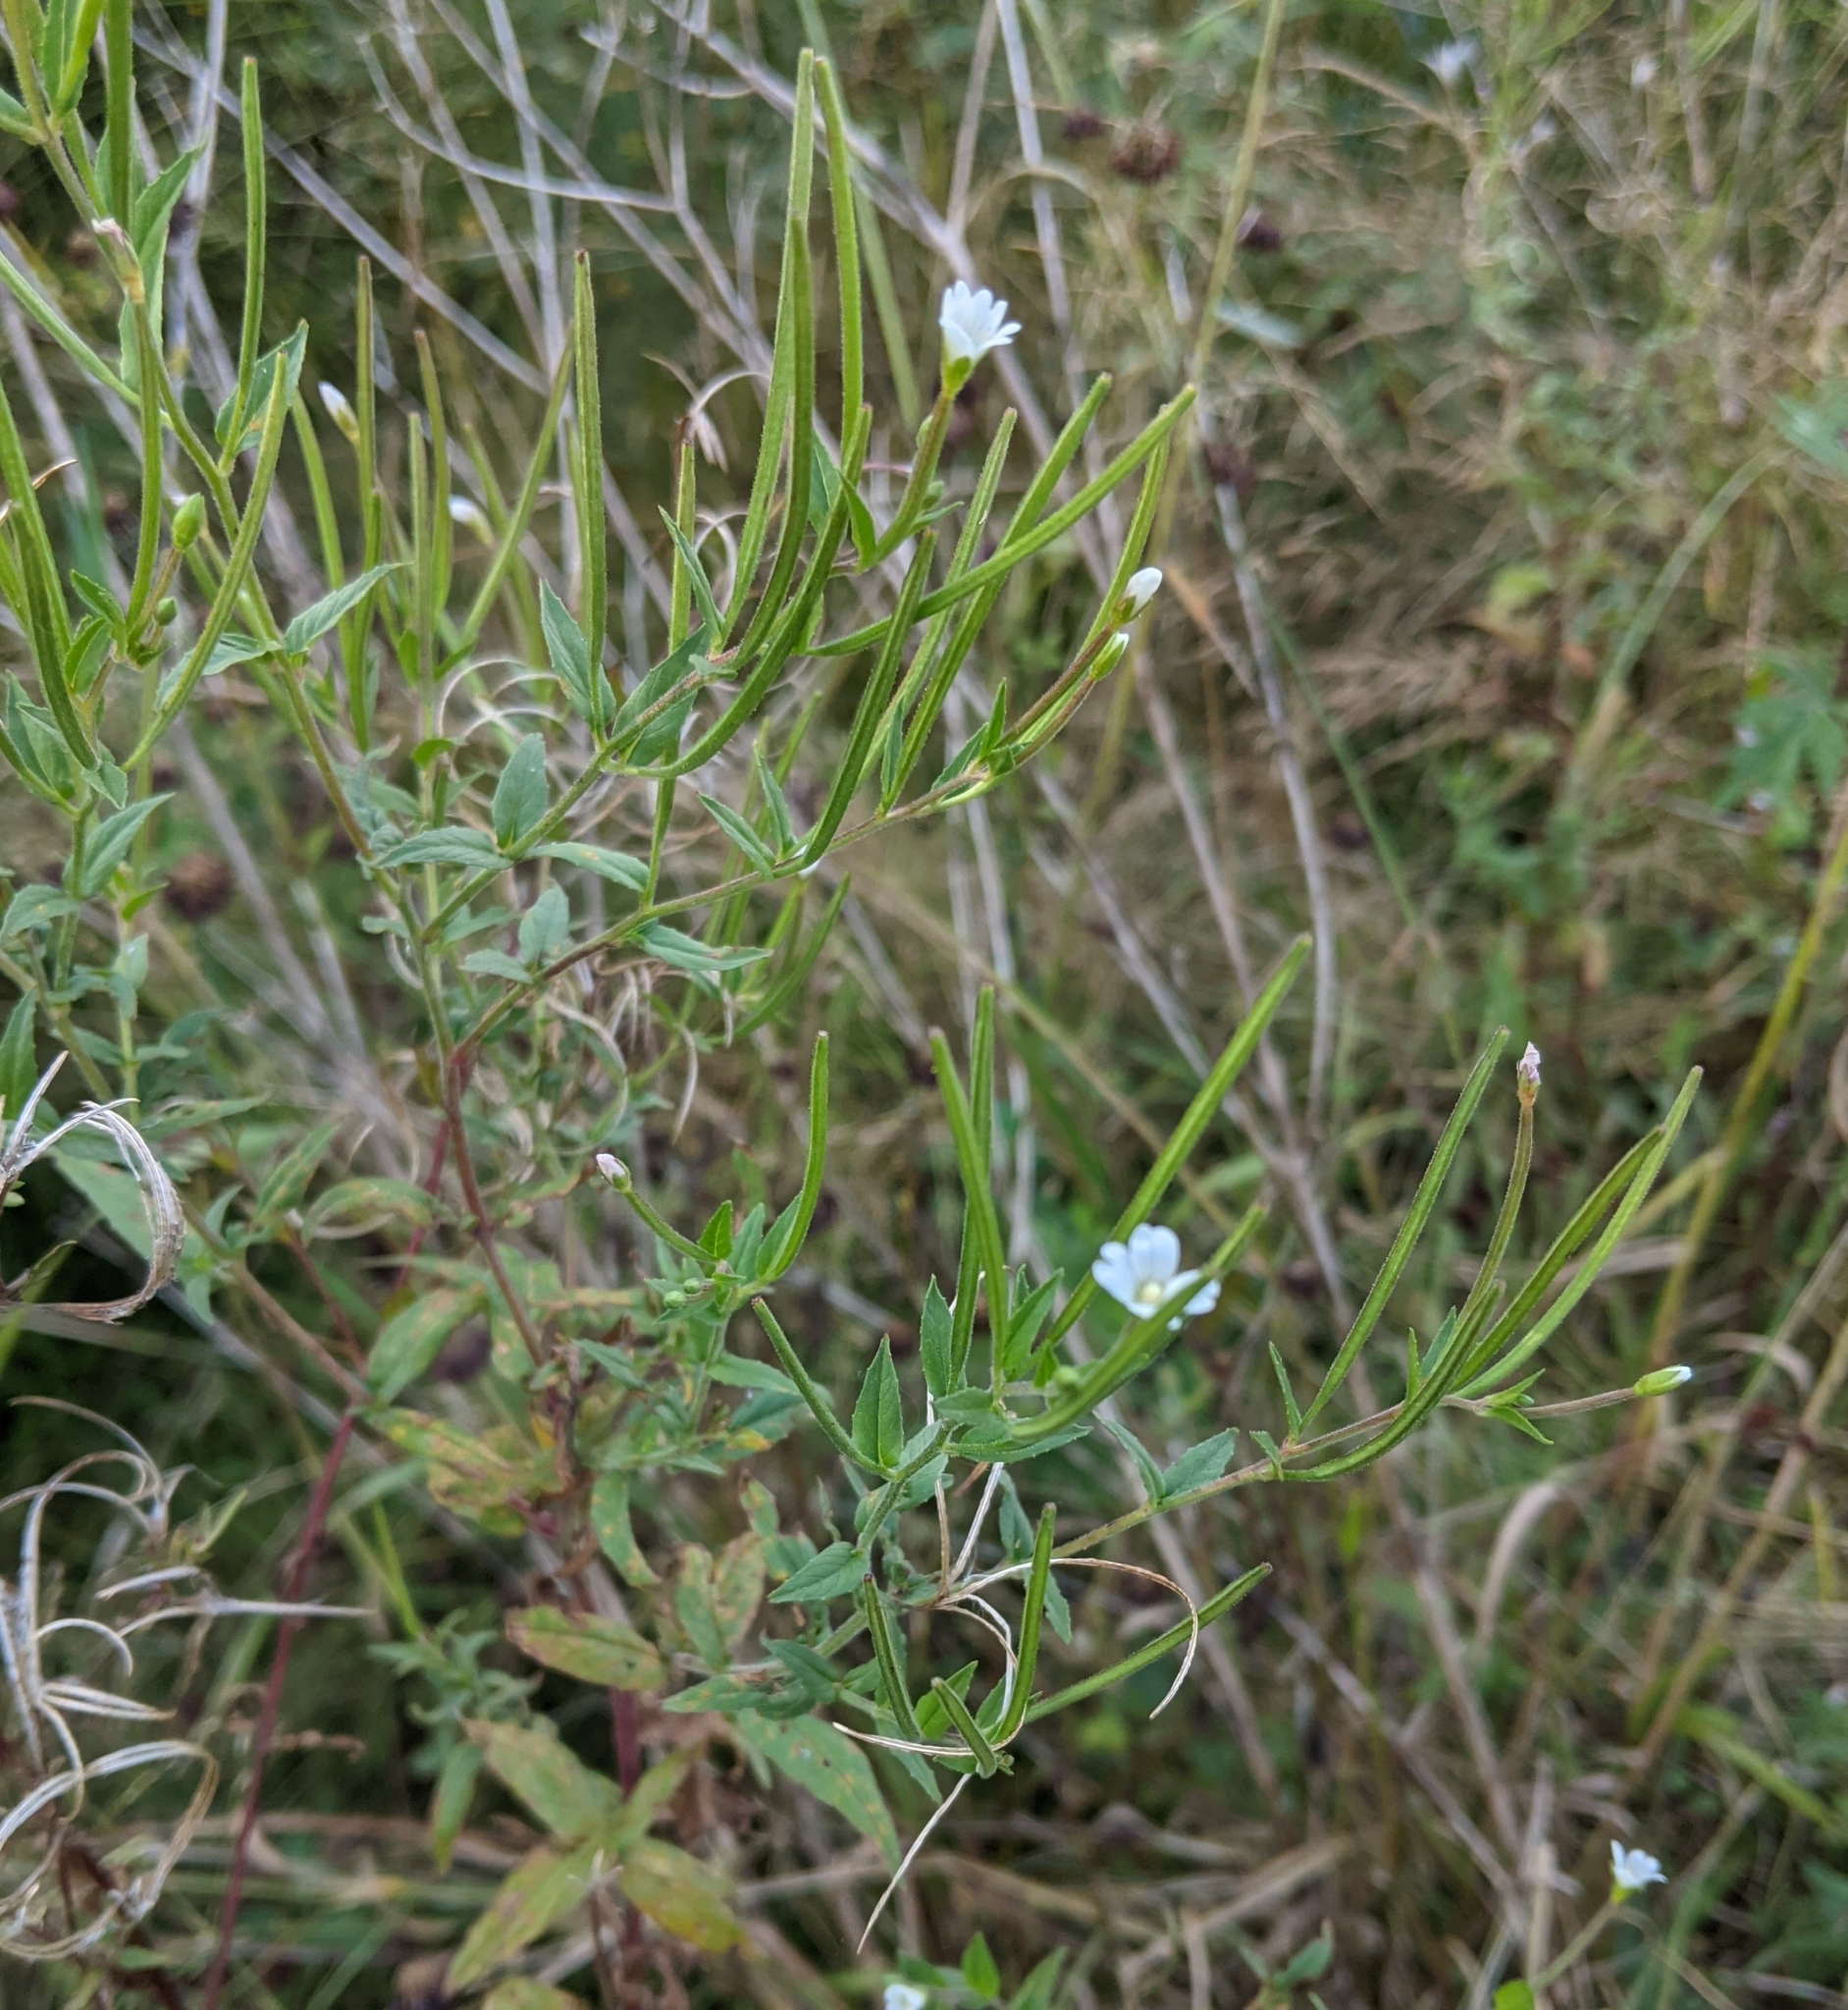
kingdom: Plantae
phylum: Tracheophyta
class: Magnoliopsida
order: Myrtales
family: Onagraceae
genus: Epilobium
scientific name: Epilobium pseudorubescens
